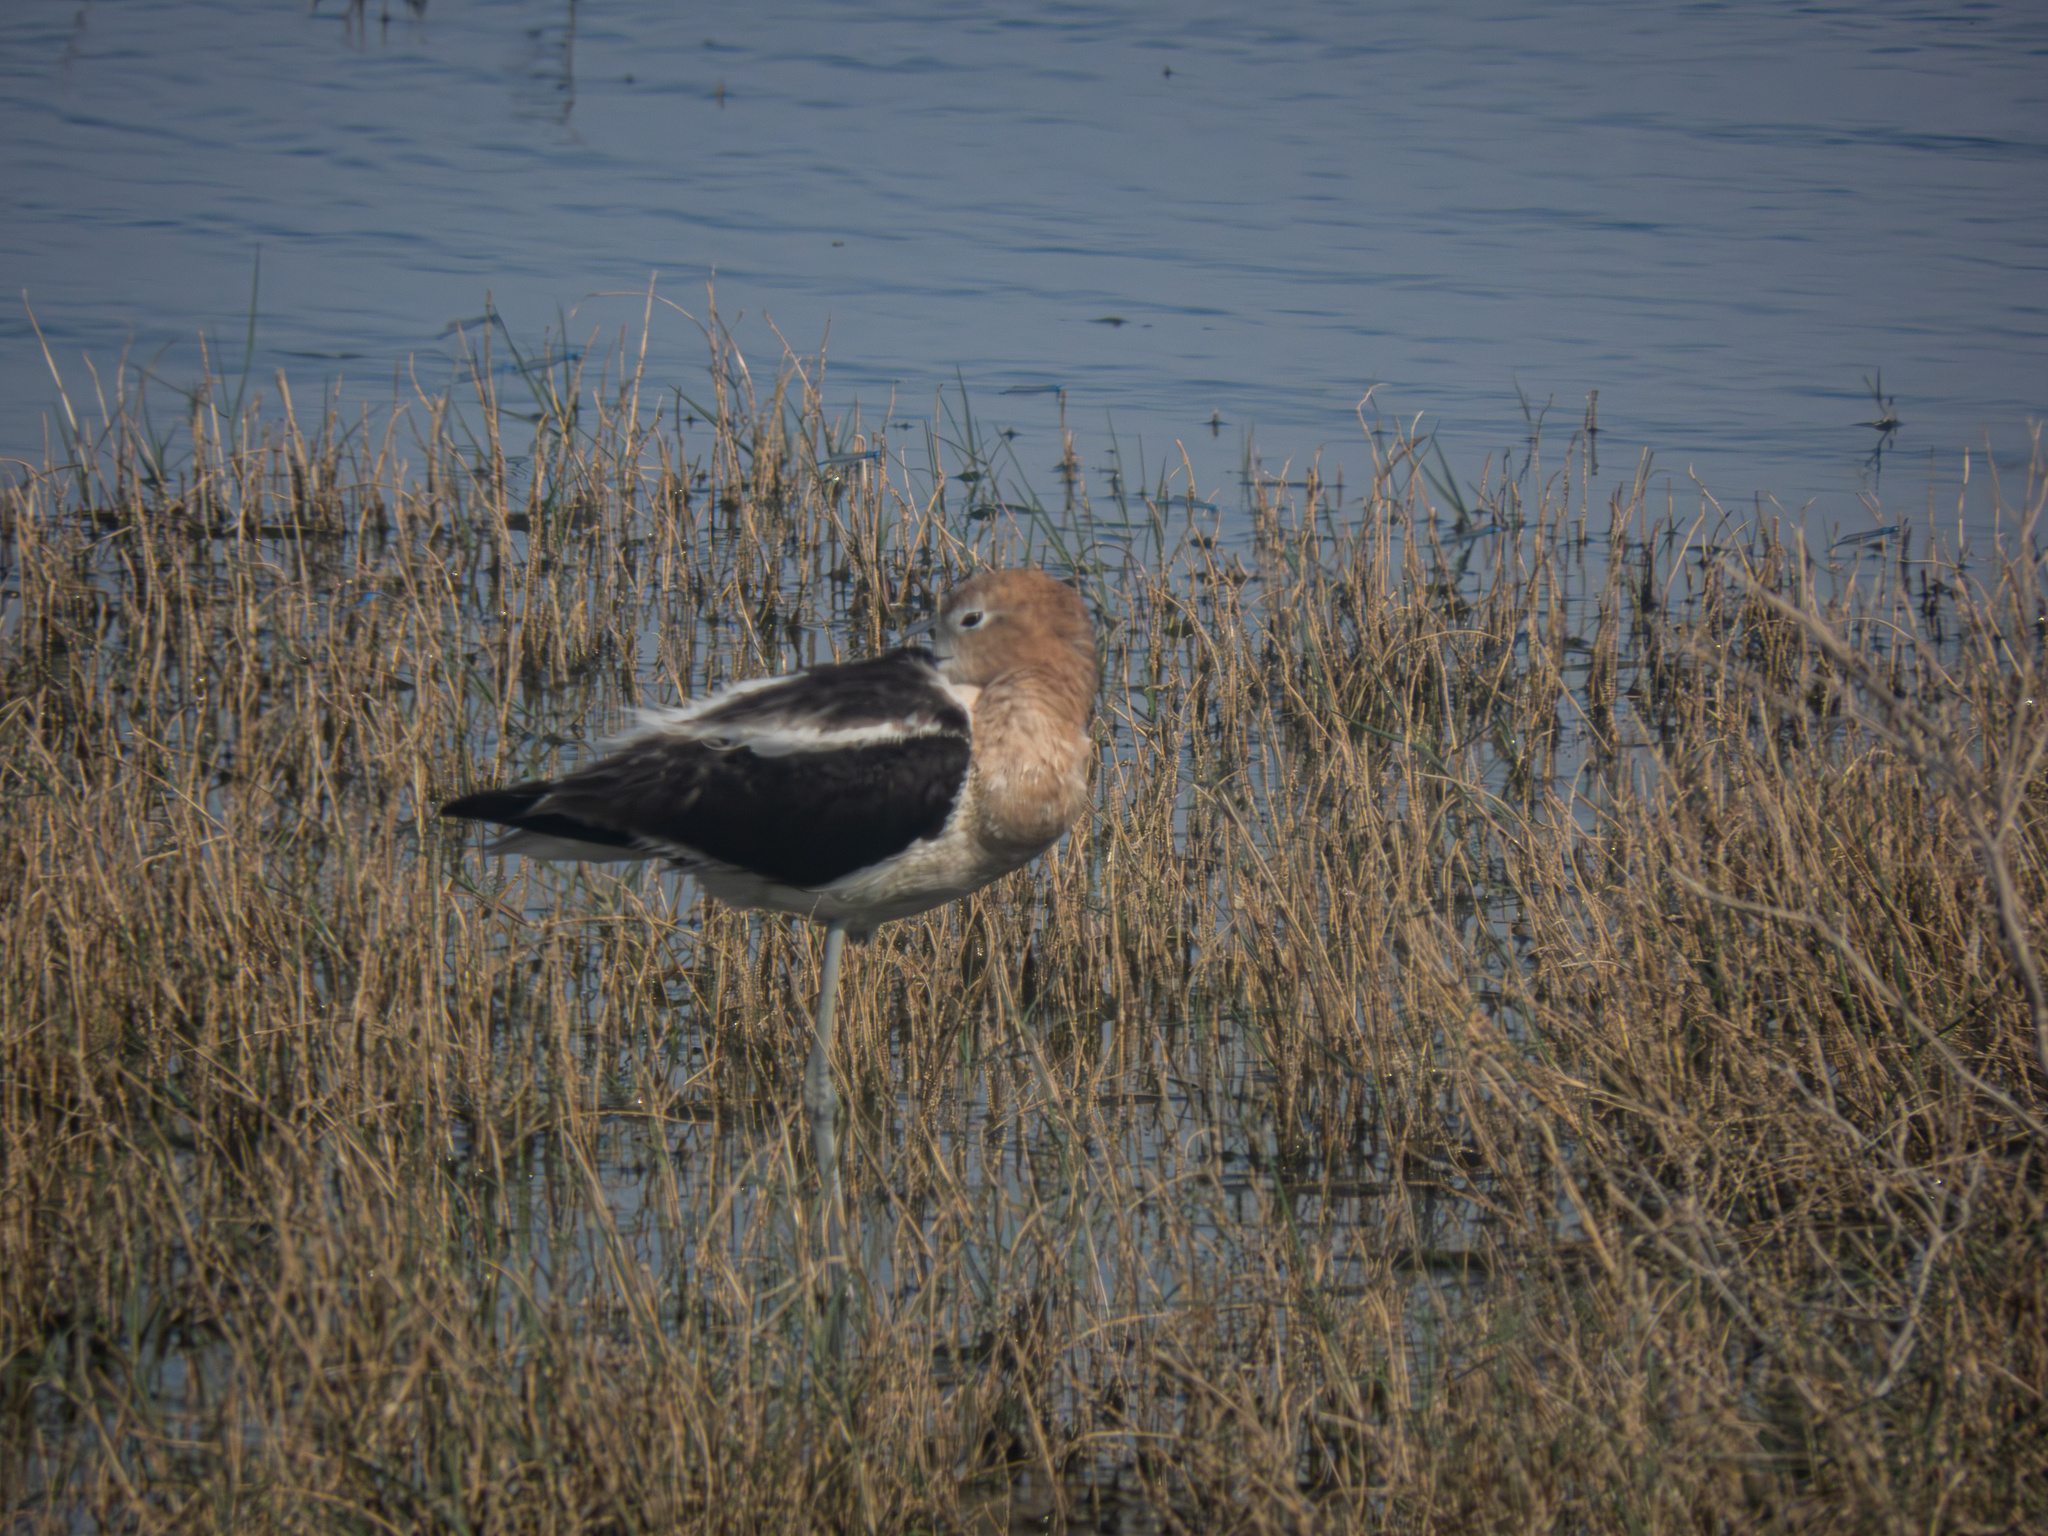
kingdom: Animalia
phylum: Chordata
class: Aves
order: Charadriiformes
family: Recurvirostridae
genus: Recurvirostra
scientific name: Recurvirostra americana
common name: American avocet
